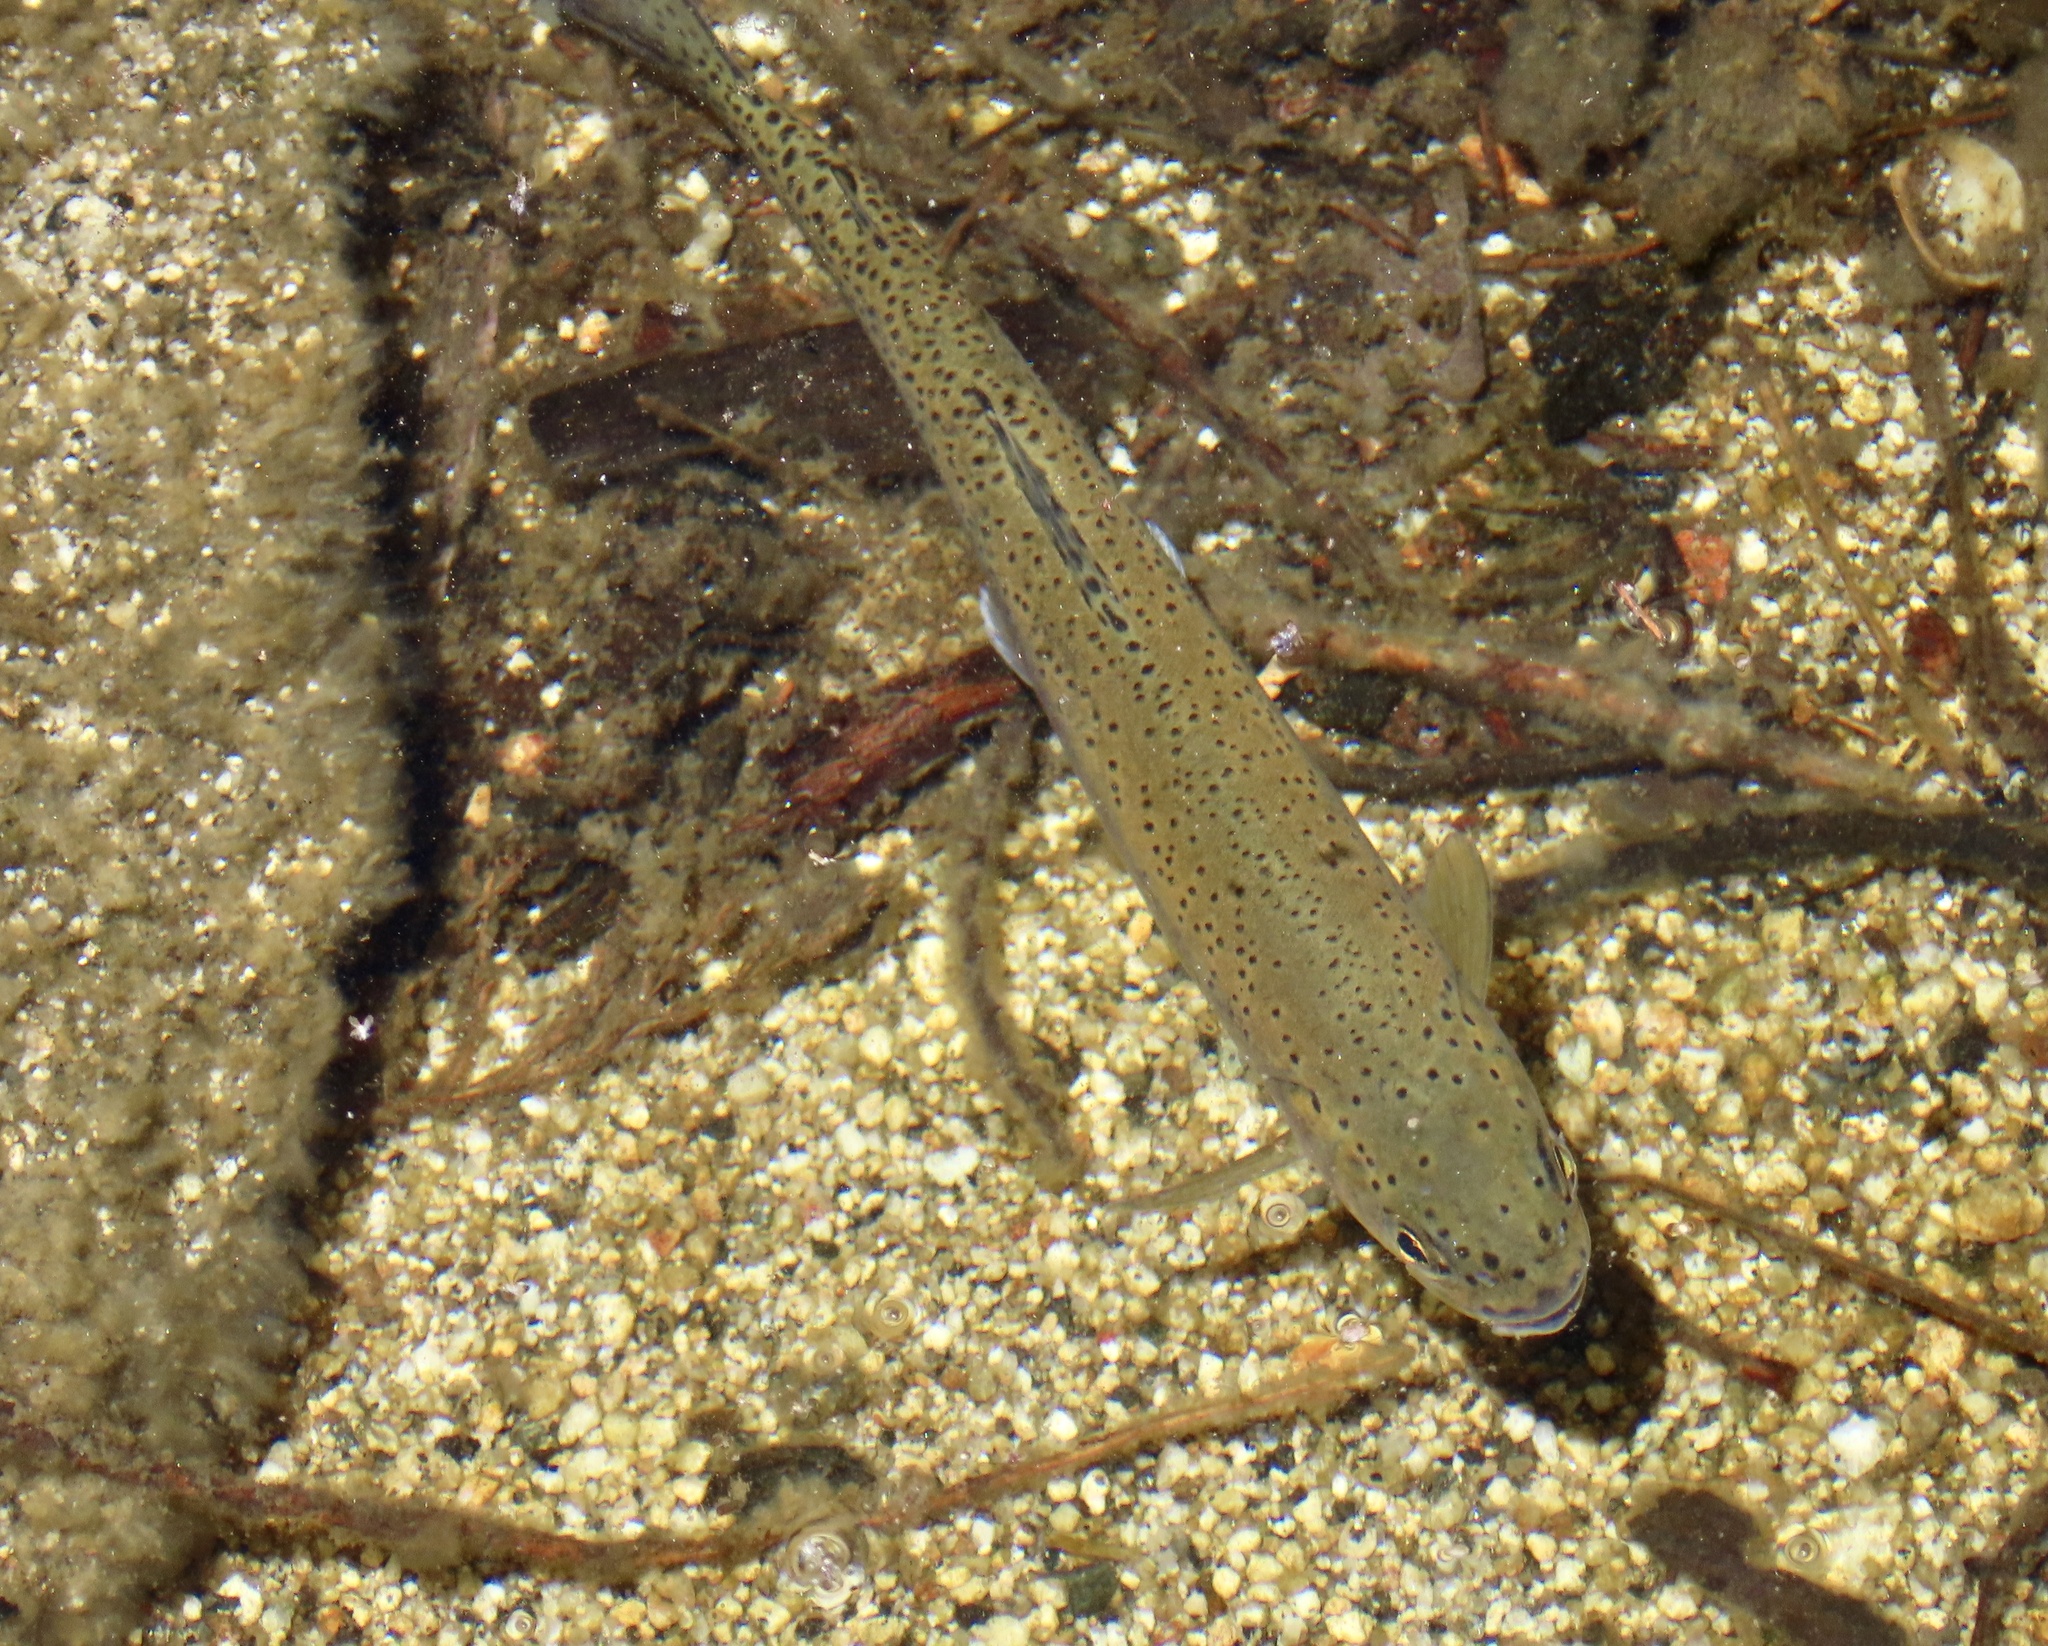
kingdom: Animalia
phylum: Chordata
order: Salmoniformes
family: Salmonidae
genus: Oncorhynchus
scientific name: Oncorhynchus mykiss
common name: Rainbow trout
